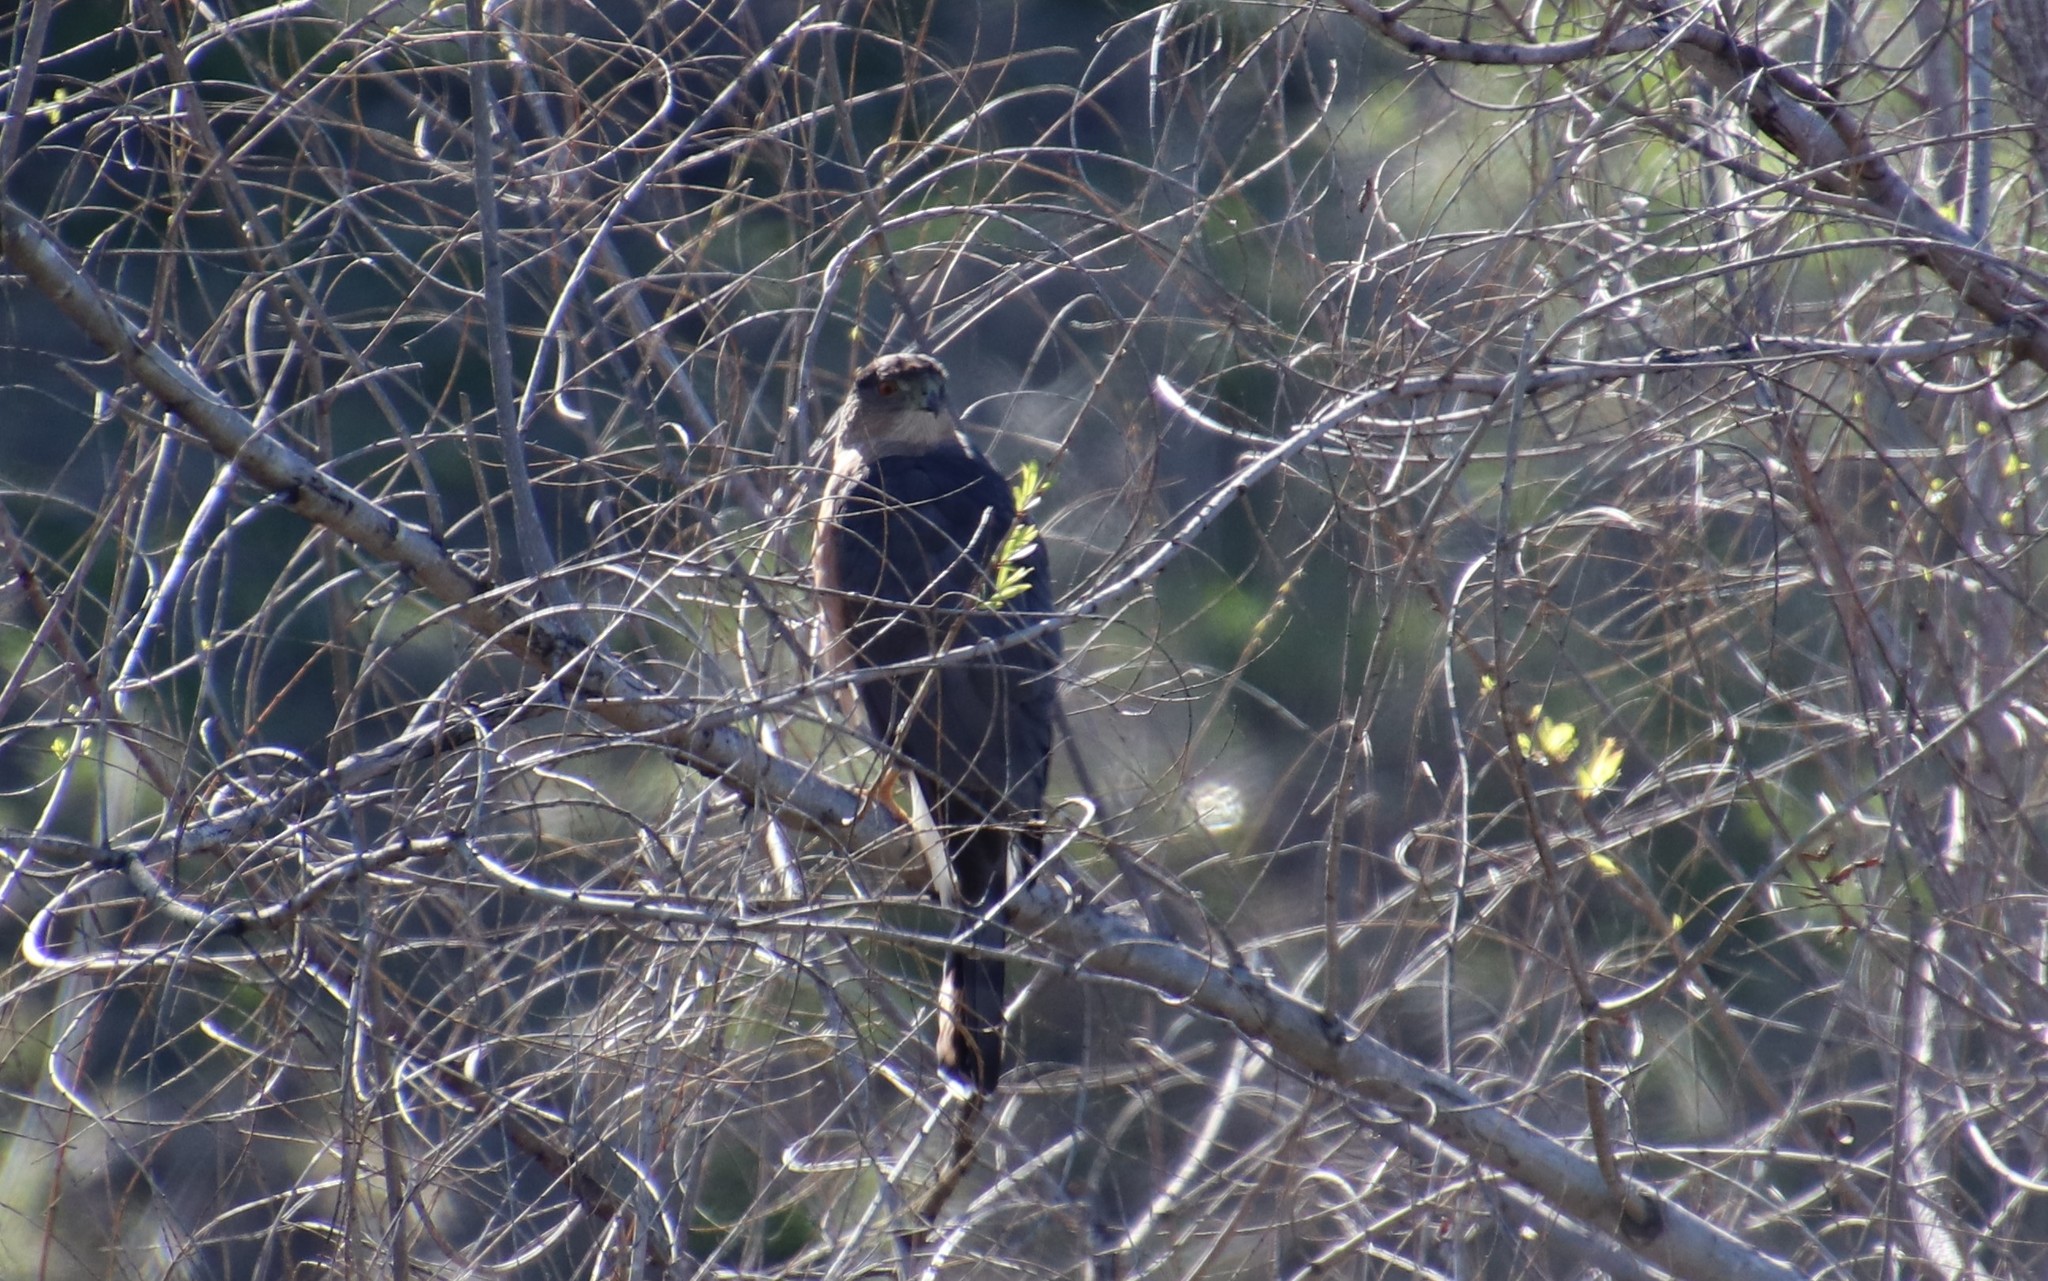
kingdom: Animalia
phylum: Chordata
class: Aves
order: Accipitriformes
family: Accipitridae
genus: Accipiter
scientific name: Accipiter cooperii
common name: Cooper's hawk
